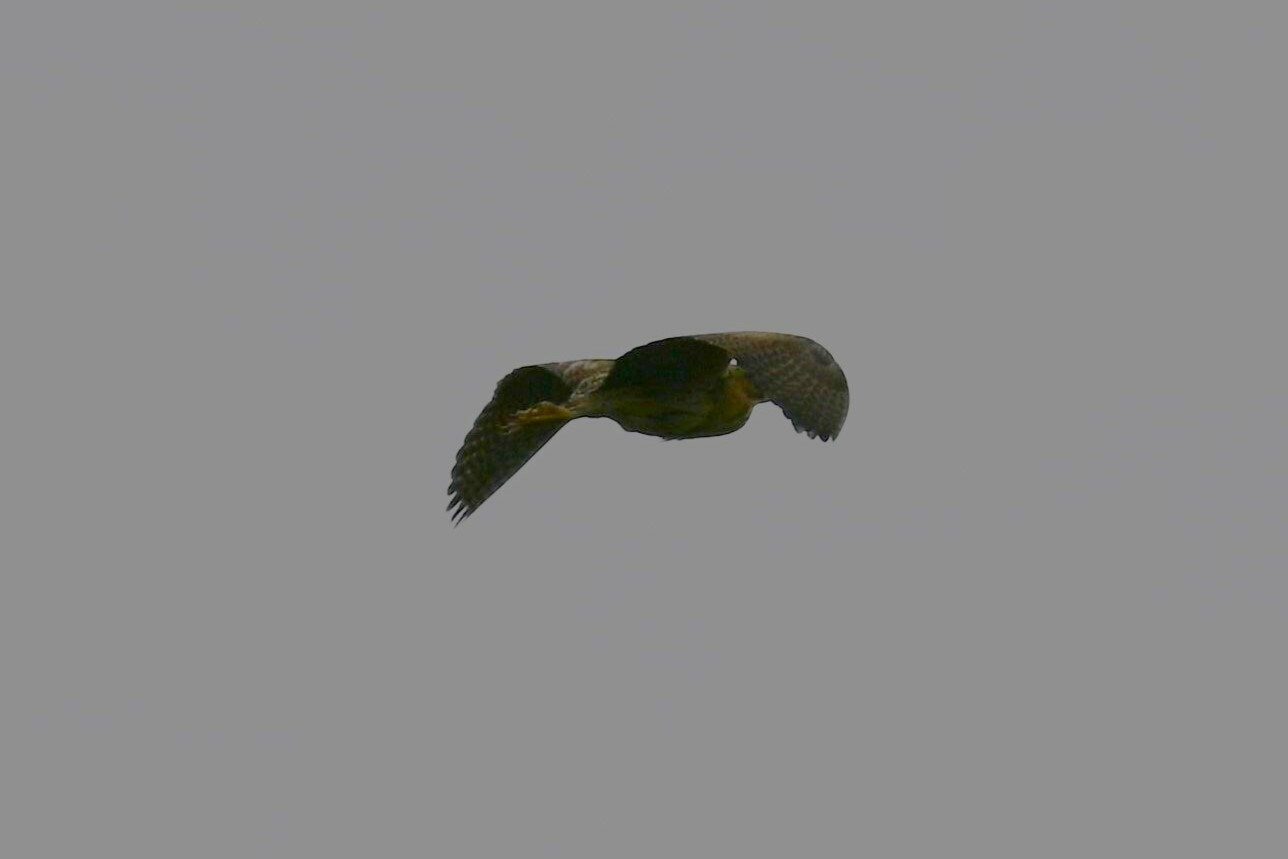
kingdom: Animalia
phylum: Chordata
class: Aves
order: Pelecaniformes
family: Ardeidae
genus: Botaurus
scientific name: Botaurus stellaris
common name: Eurasian bittern
